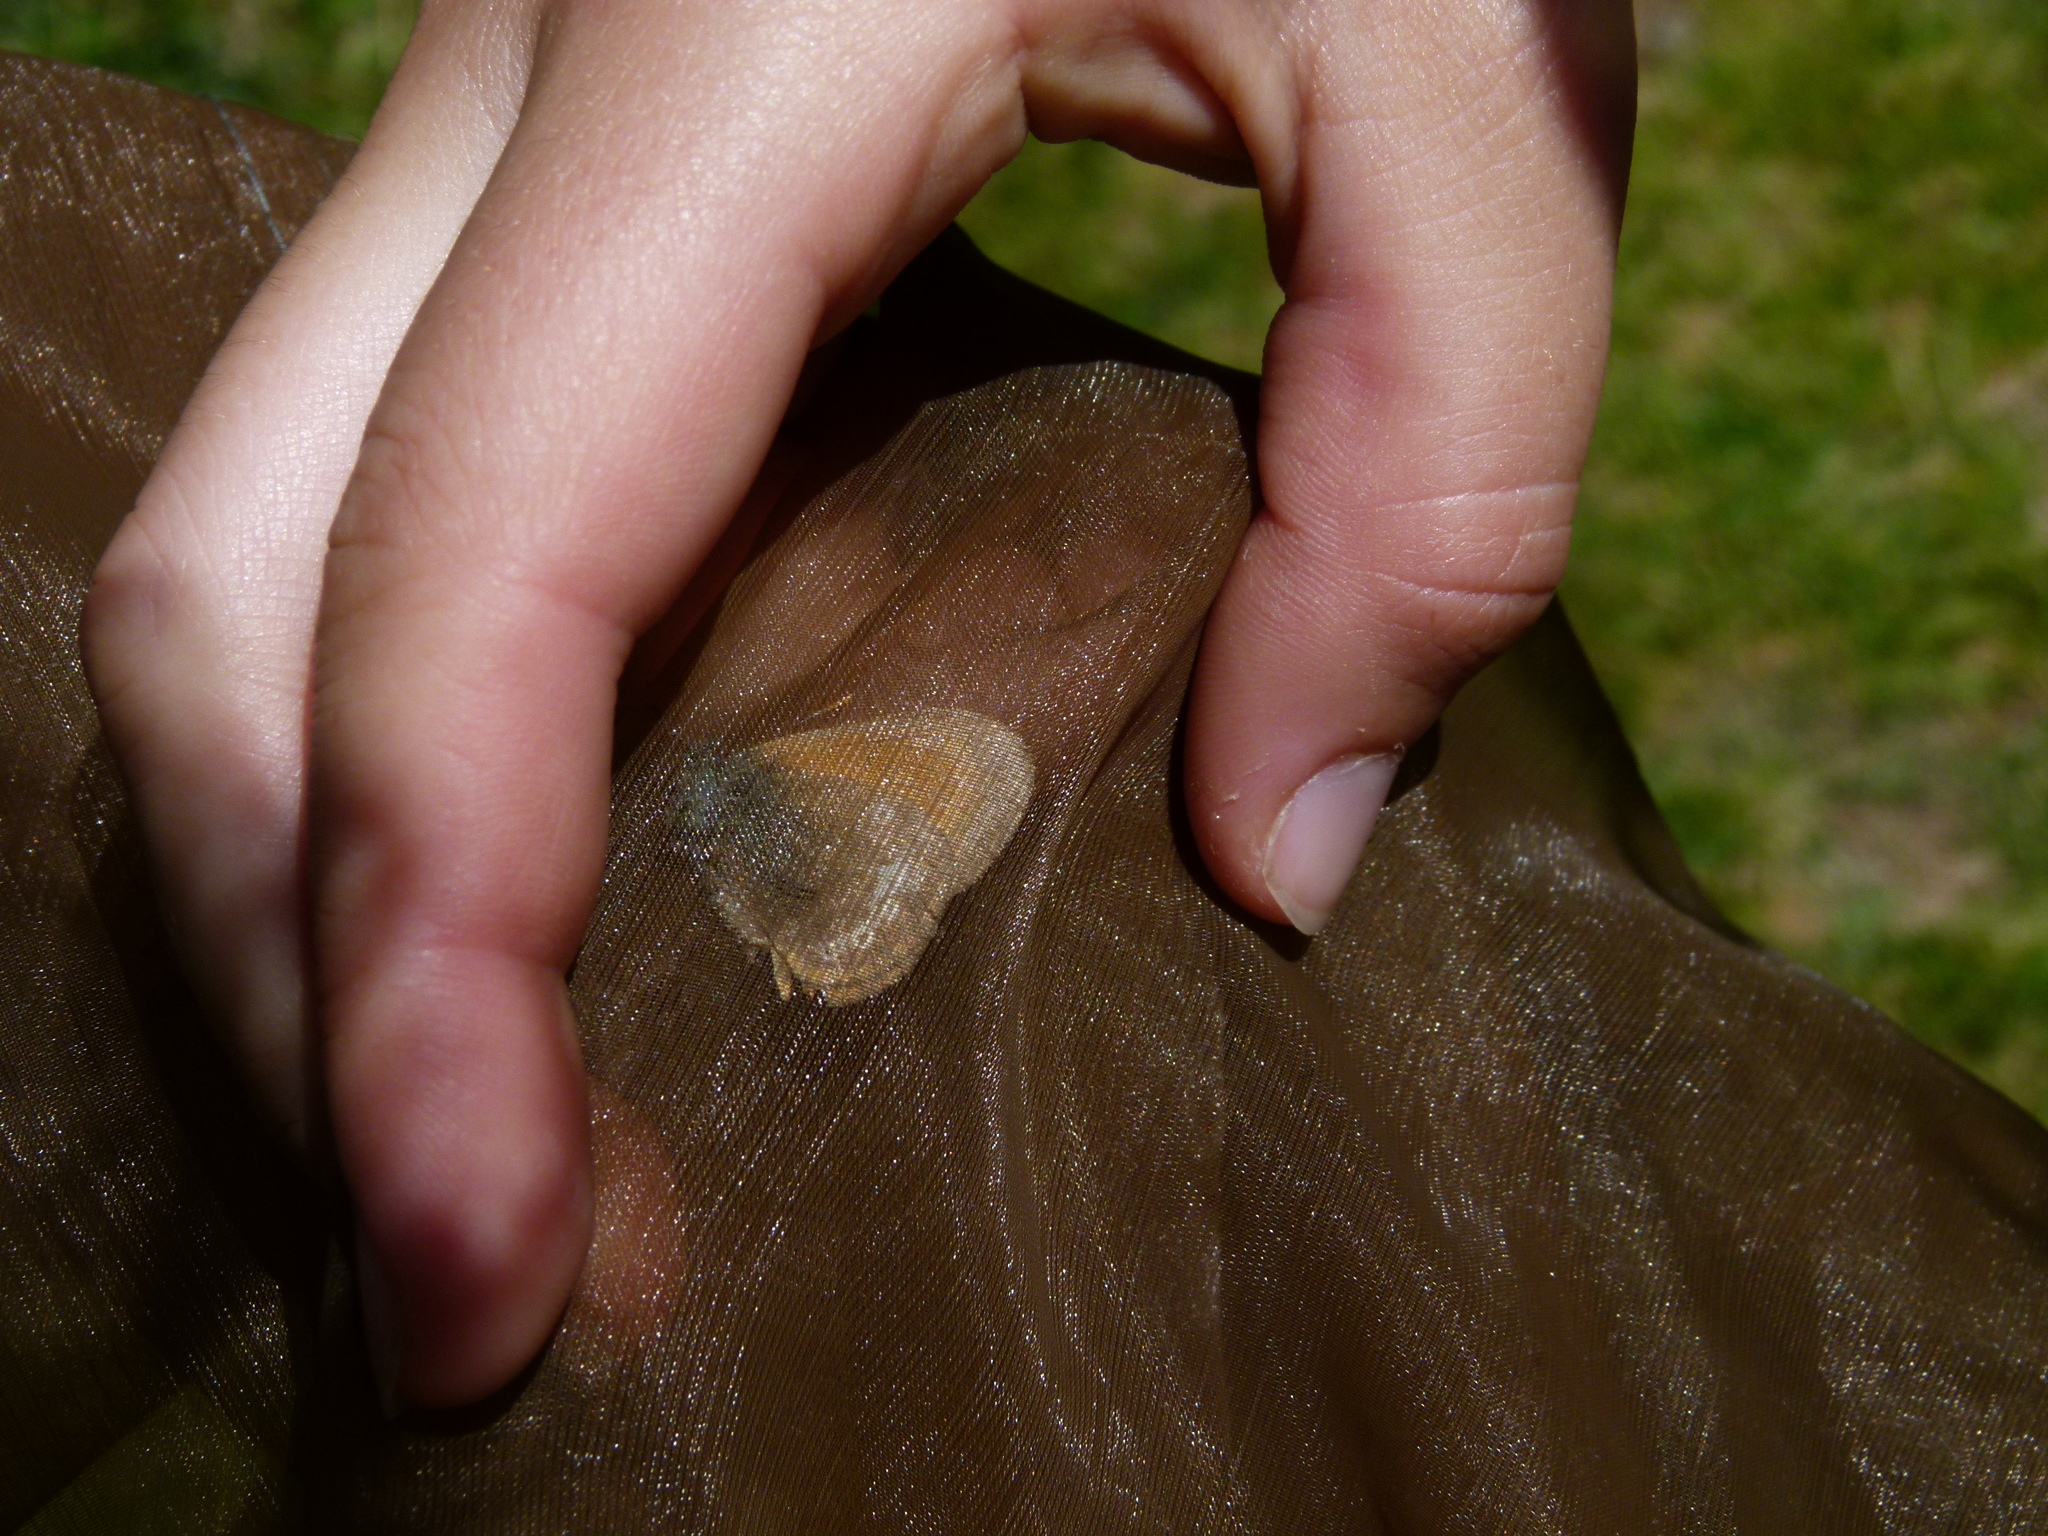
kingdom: Animalia
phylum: Arthropoda
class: Insecta
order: Lepidoptera
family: Nymphalidae
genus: Coenonympha
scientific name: Coenonympha iphis
